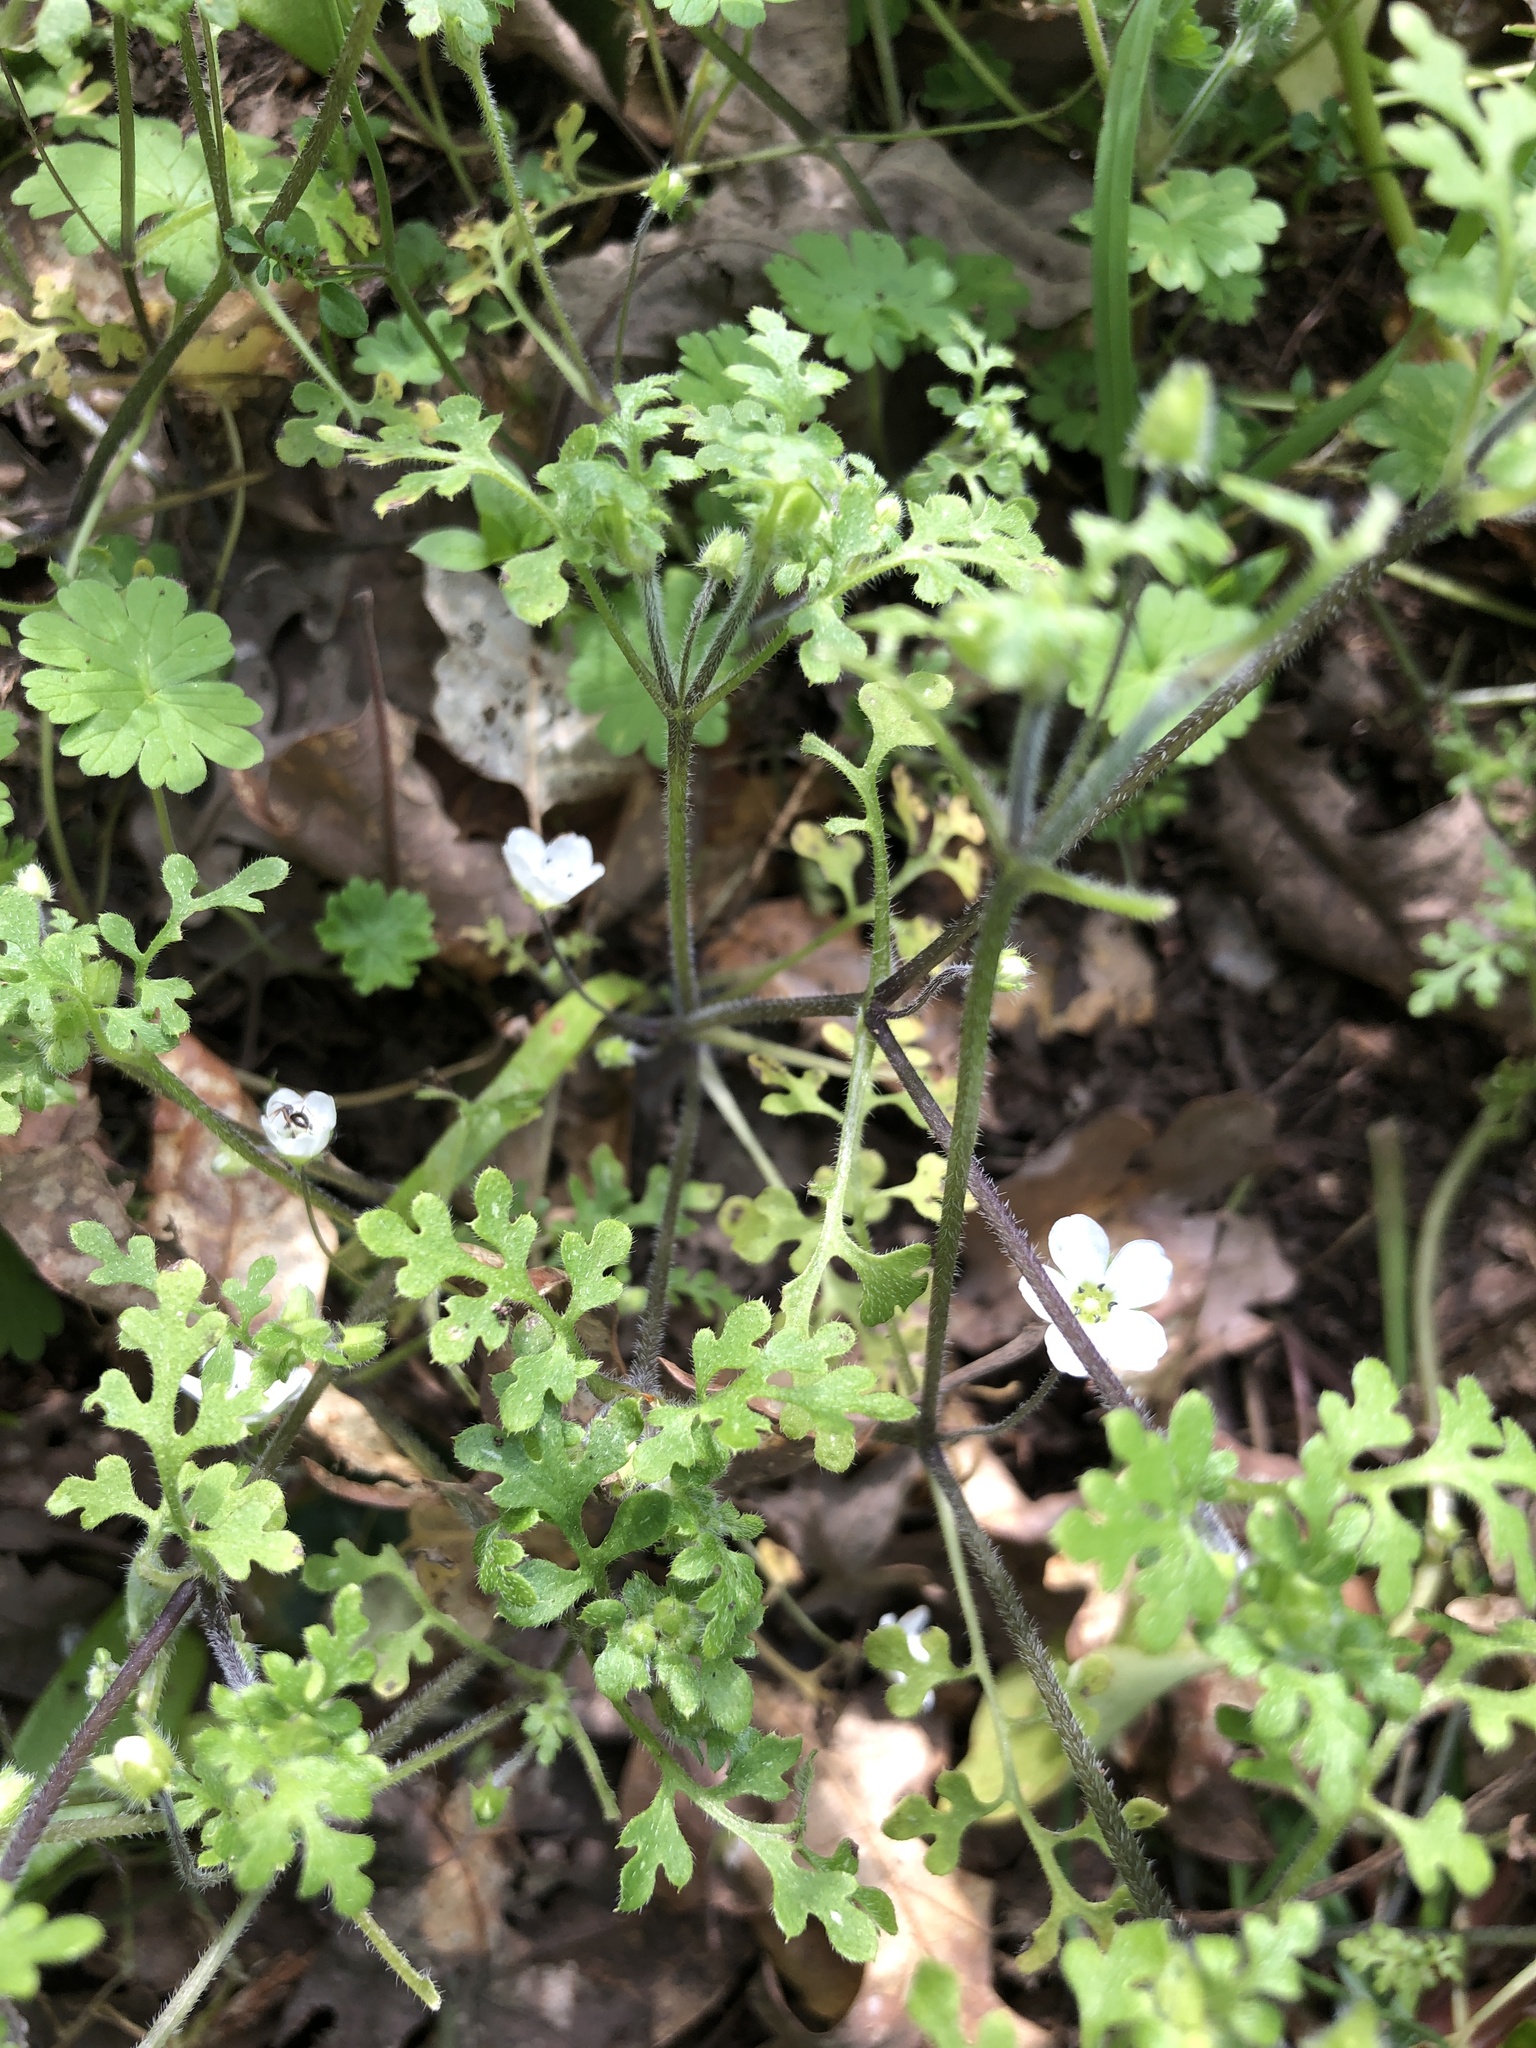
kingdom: Plantae
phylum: Tracheophyta
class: Magnoliopsida
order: Boraginales
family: Hydrophyllaceae
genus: Nemophila
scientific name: Nemophila heterophylla
